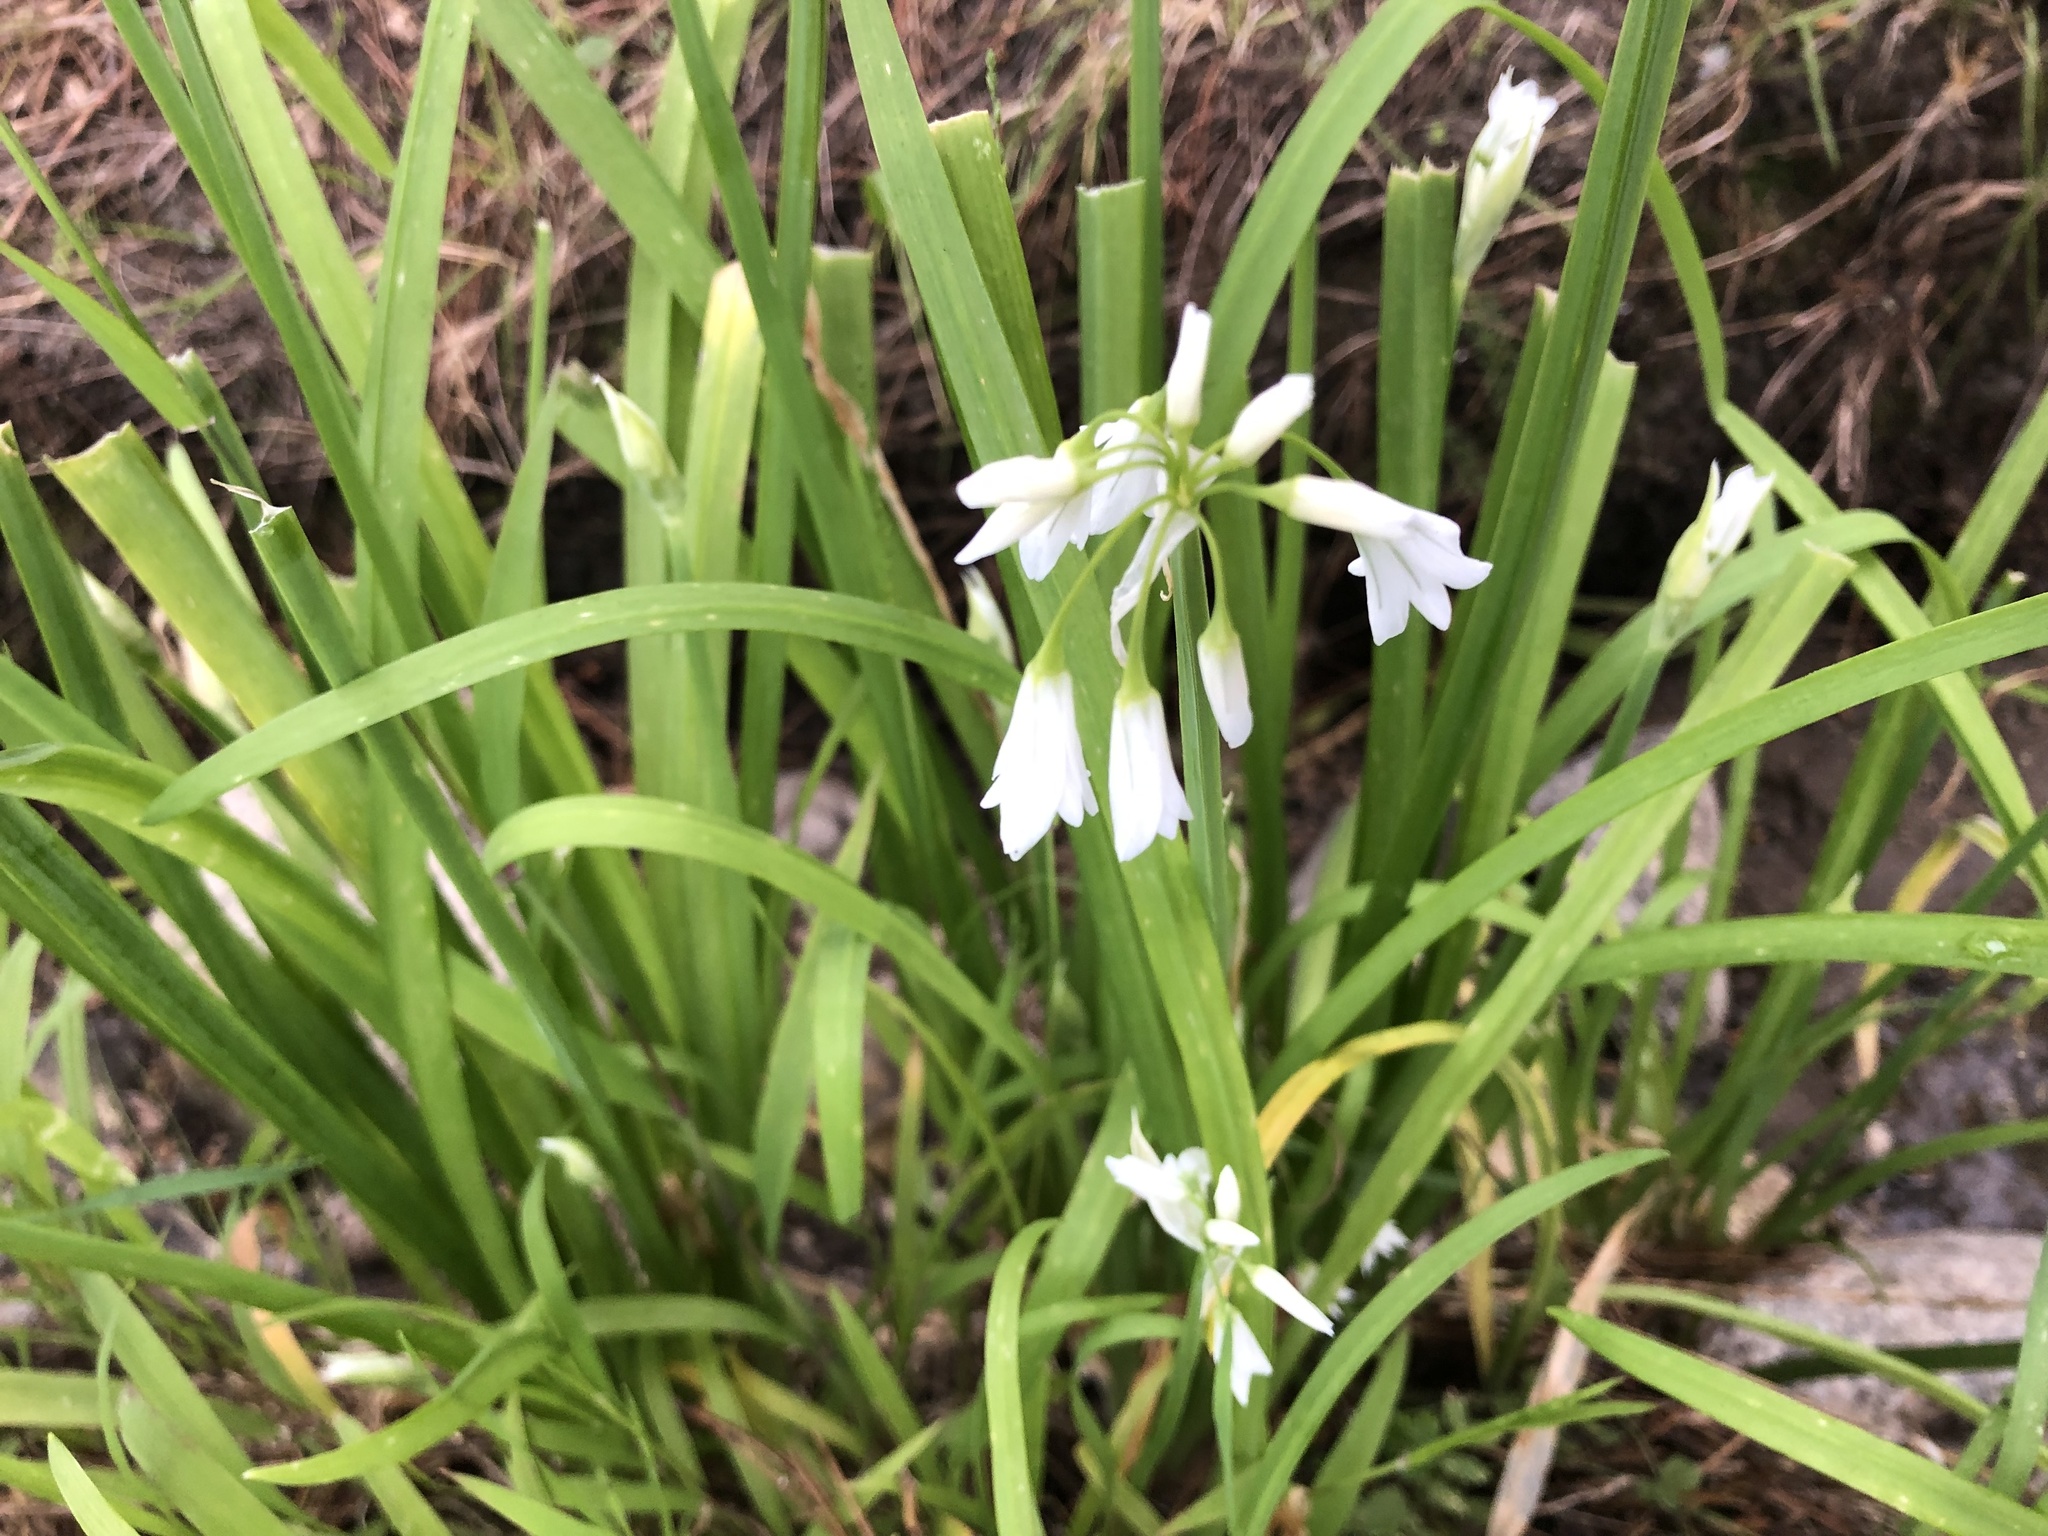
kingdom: Plantae
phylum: Tracheophyta
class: Liliopsida
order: Asparagales
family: Amaryllidaceae
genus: Allium
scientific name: Allium triquetrum
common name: Three-cornered garlic
